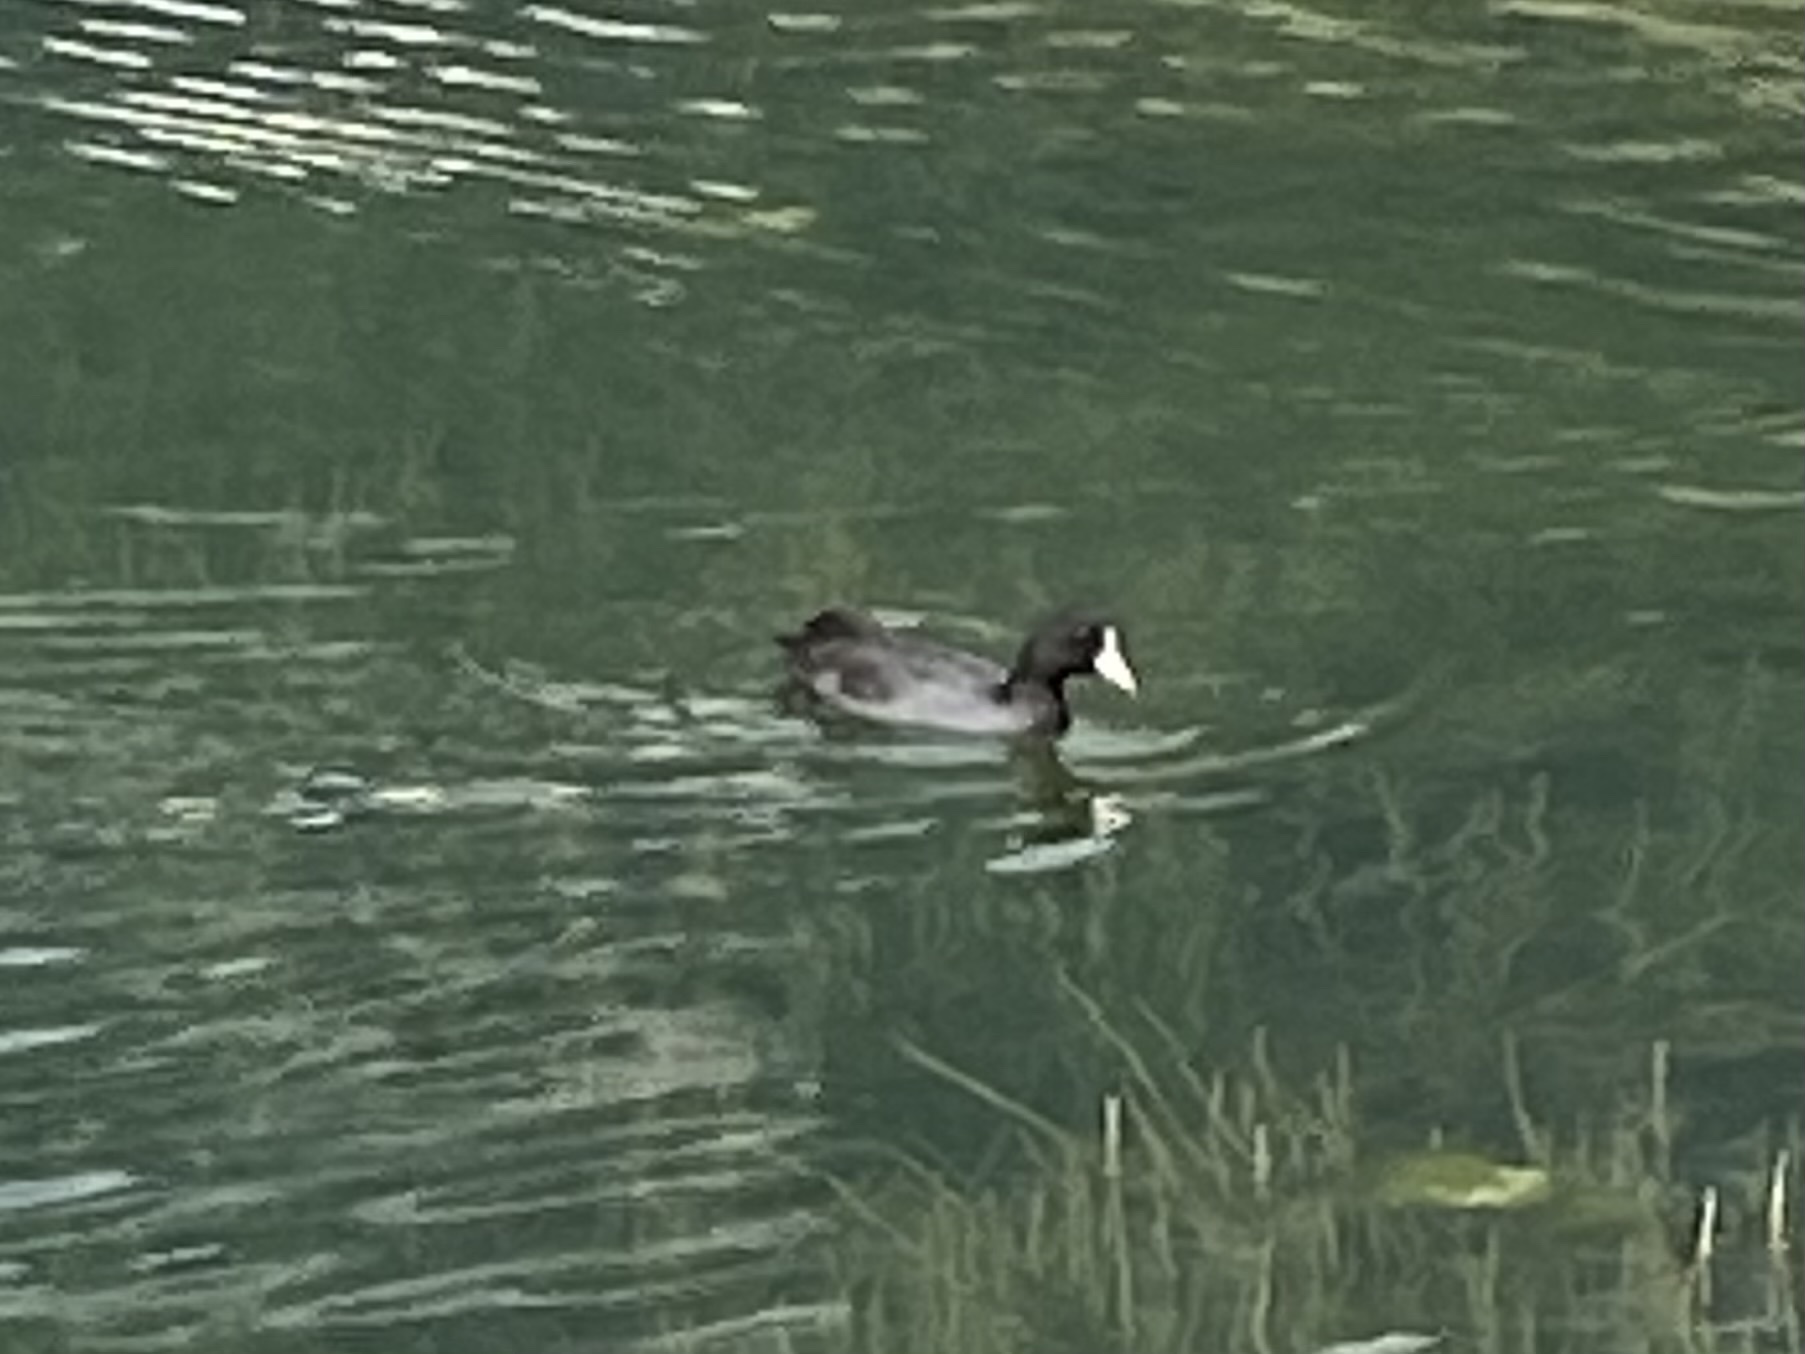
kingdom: Animalia
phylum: Chordata
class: Aves
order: Gruiformes
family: Rallidae
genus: Fulica
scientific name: Fulica atra
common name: Eurasian coot
